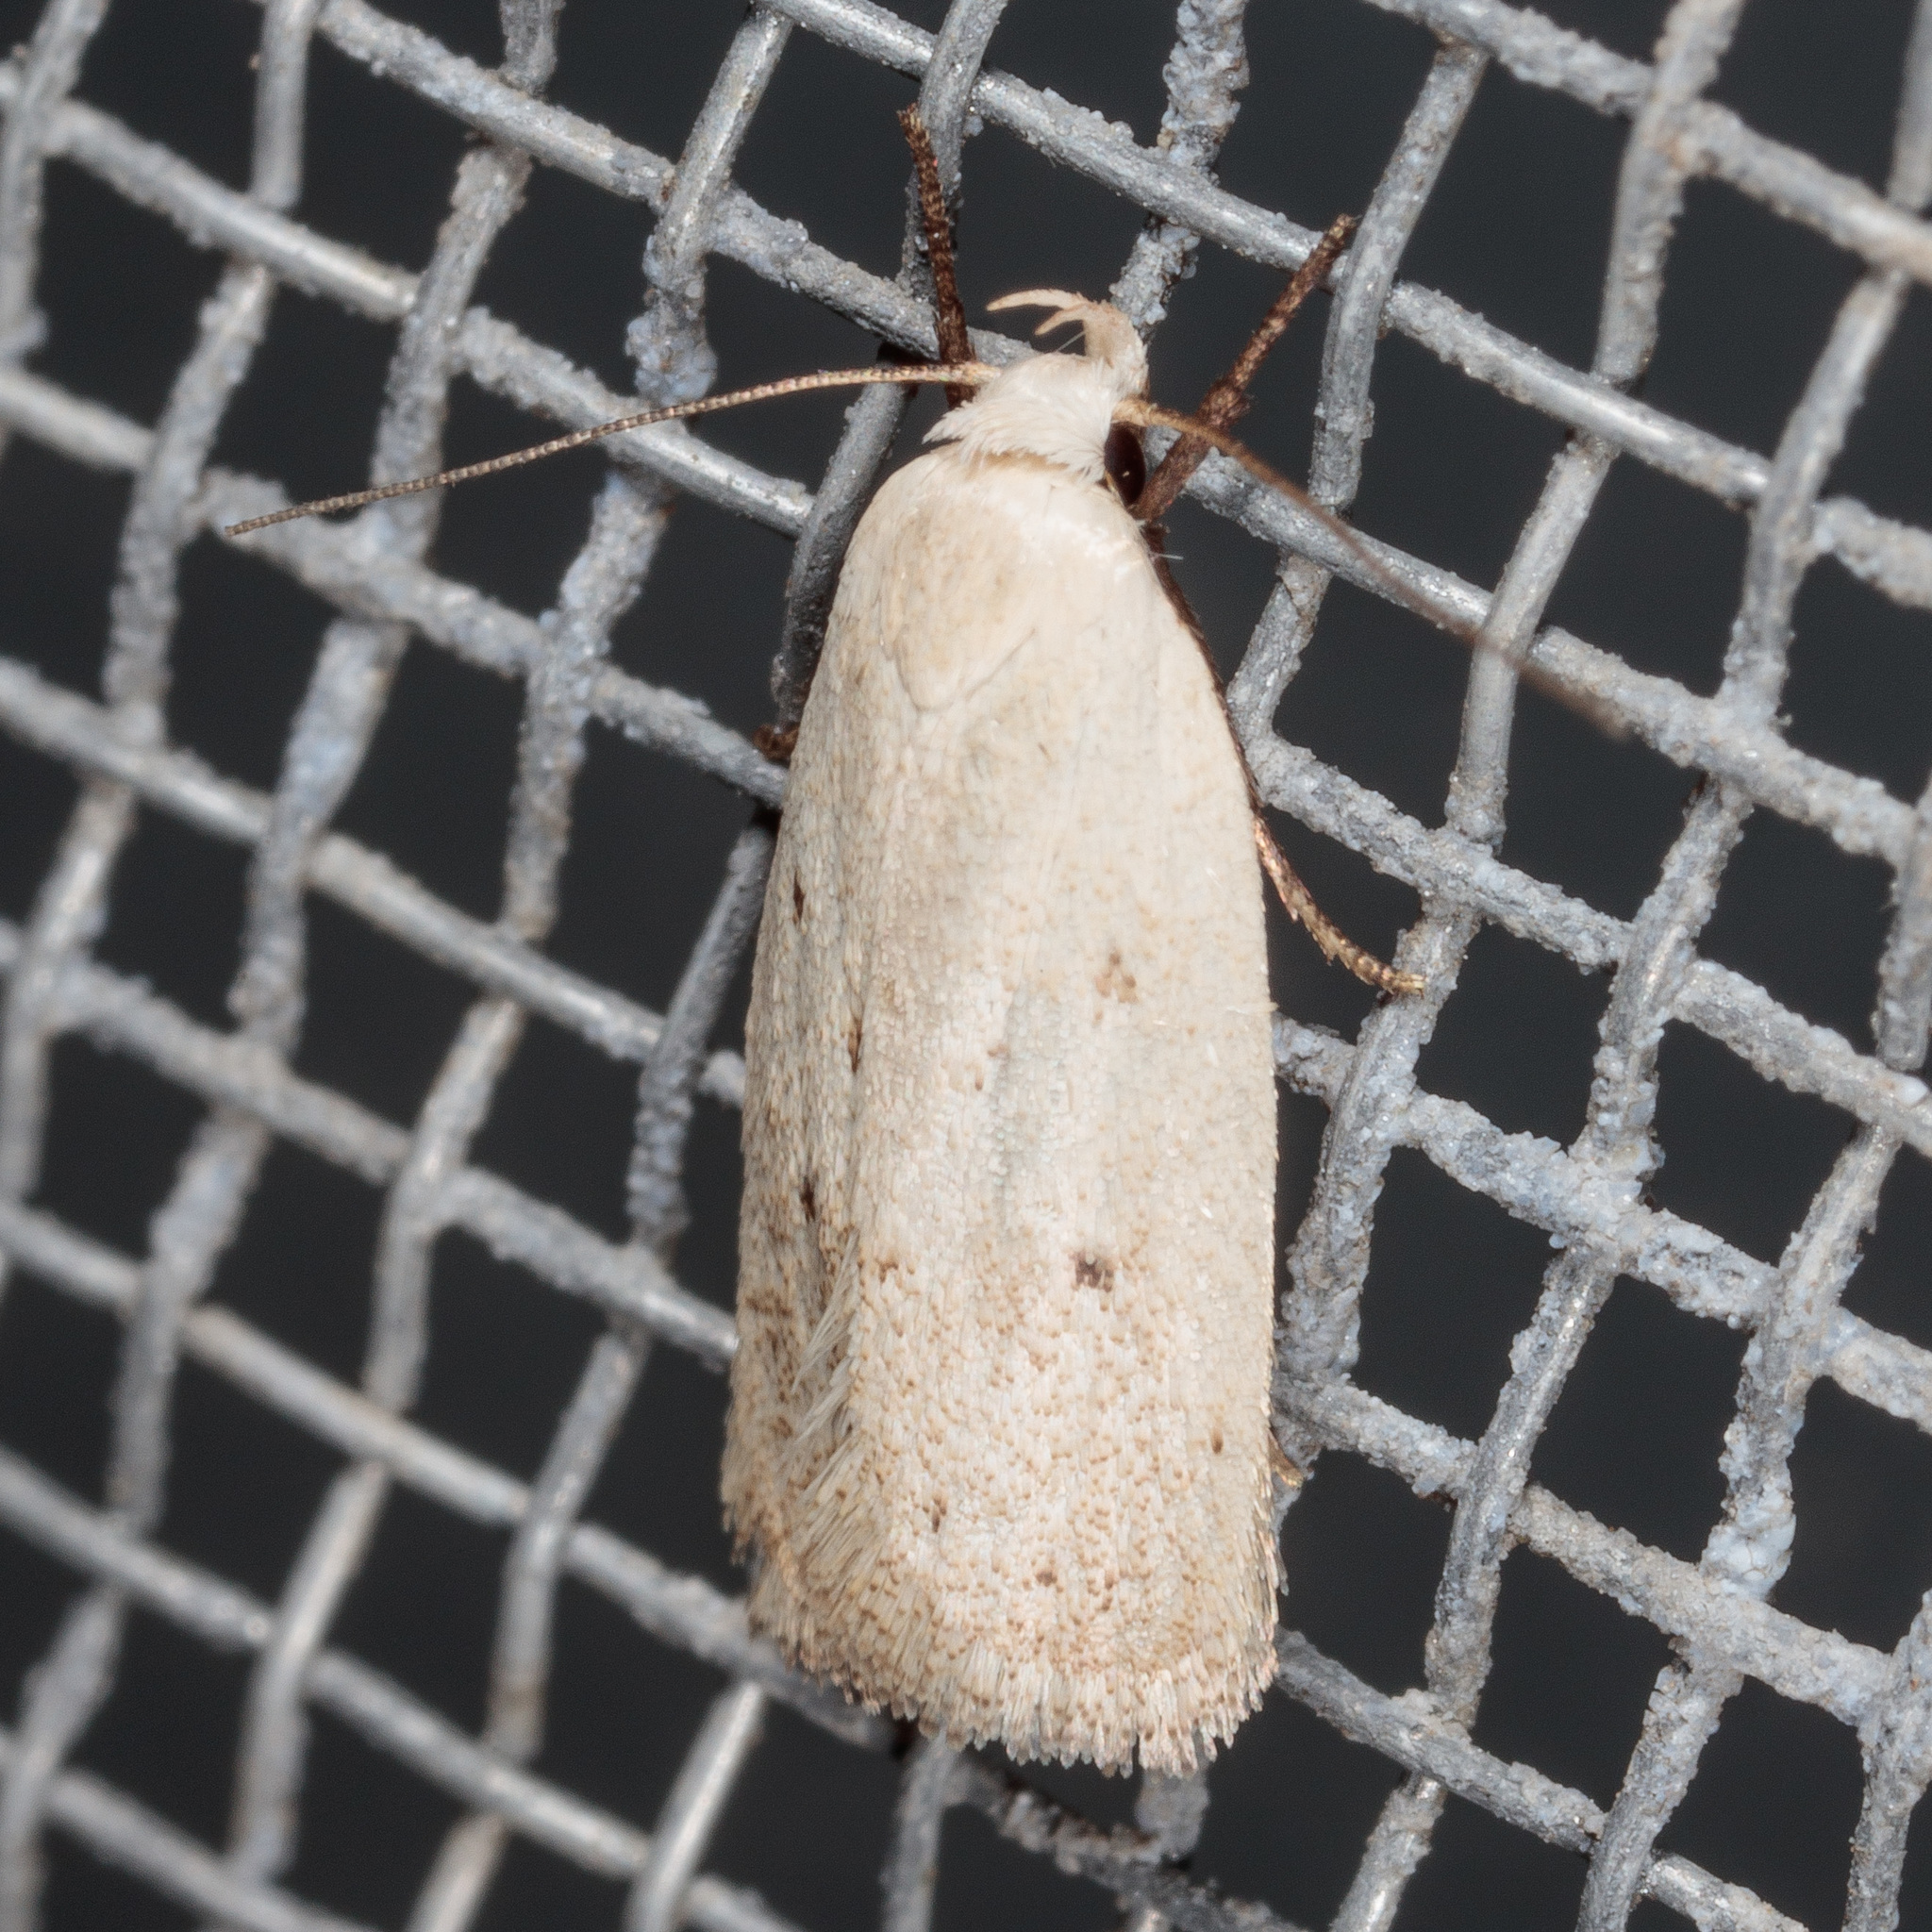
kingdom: Animalia
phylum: Arthropoda
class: Insecta
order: Lepidoptera
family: Oecophoridae
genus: Inga
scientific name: Inga cretacea
